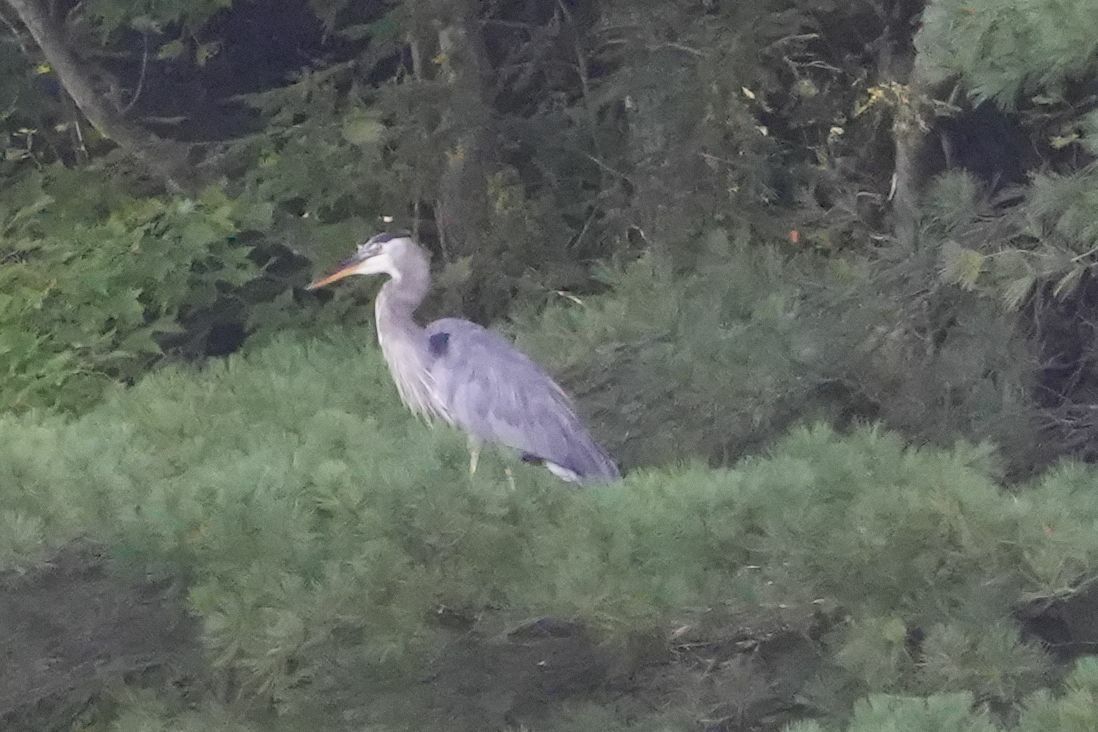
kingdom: Animalia
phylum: Chordata
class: Aves
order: Pelecaniformes
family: Ardeidae
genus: Ardea
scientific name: Ardea herodias
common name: Great blue heron
